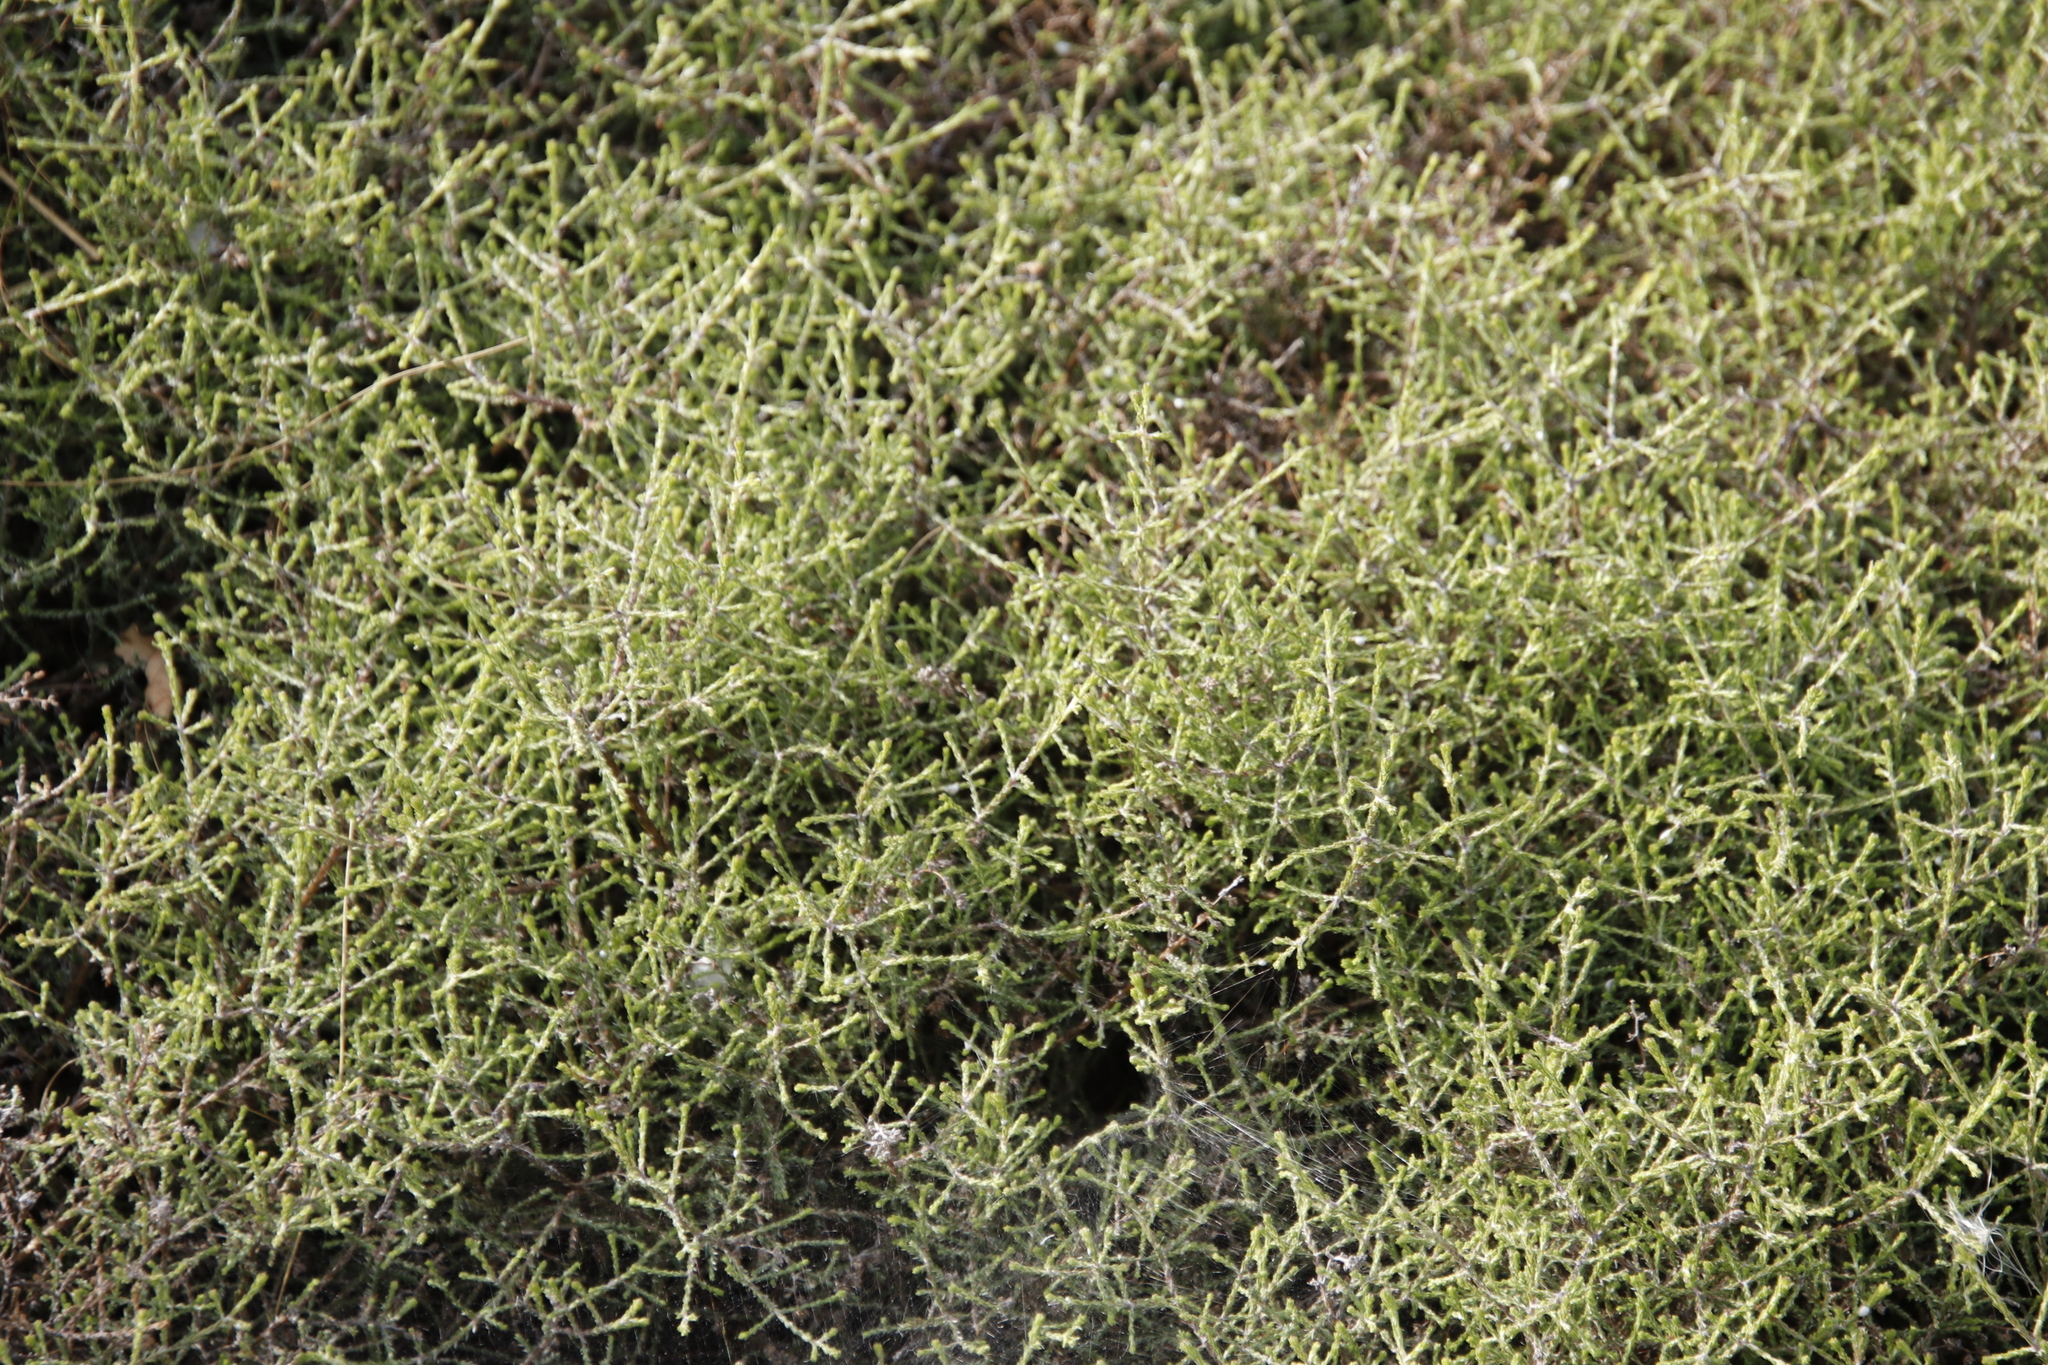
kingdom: Plantae
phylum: Tracheophyta
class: Magnoliopsida
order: Asterales
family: Asteraceae
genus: Myrovernix
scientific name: Myrovernix scaber
